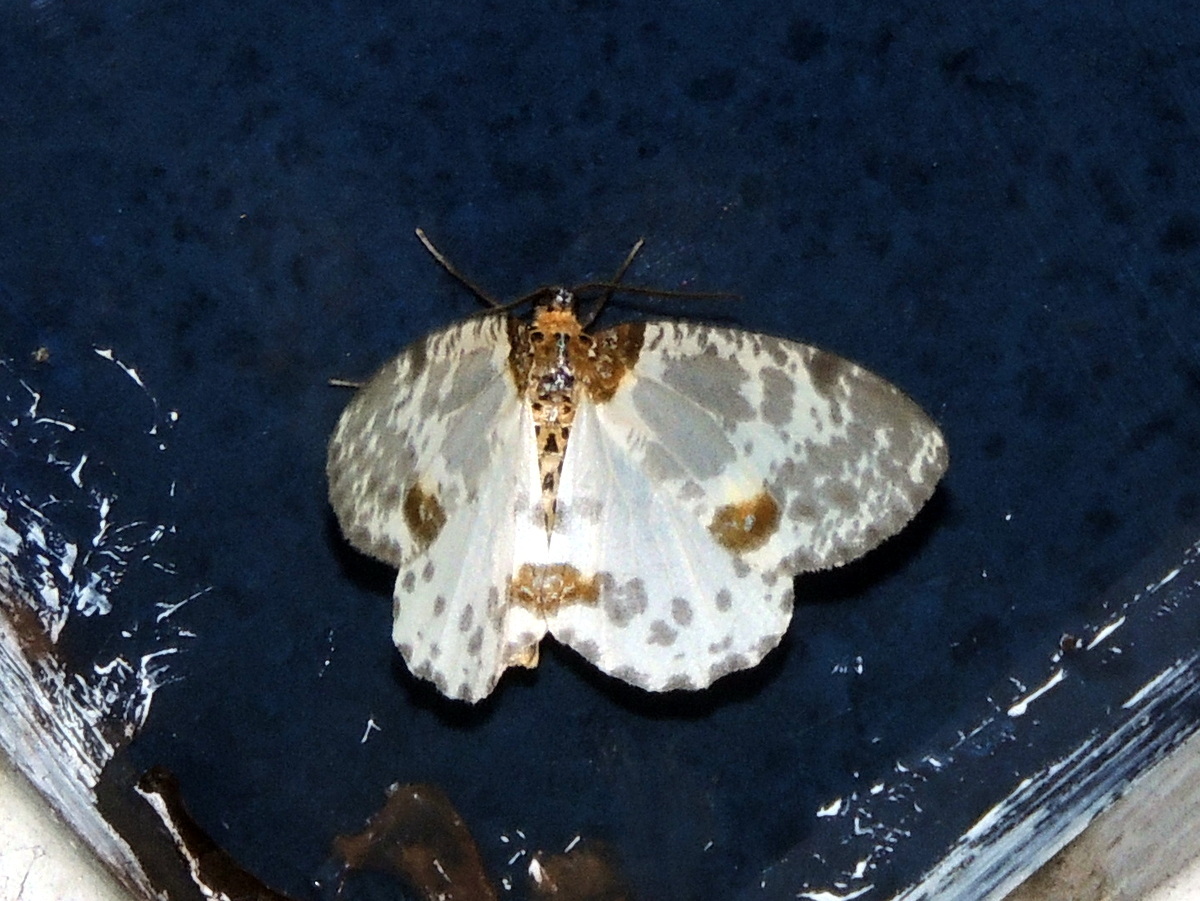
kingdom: Animalia
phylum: Arthropoda
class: Insecta
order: Lepidoptera
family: Geometridae
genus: Abraxas
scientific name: Abraxas martaria
